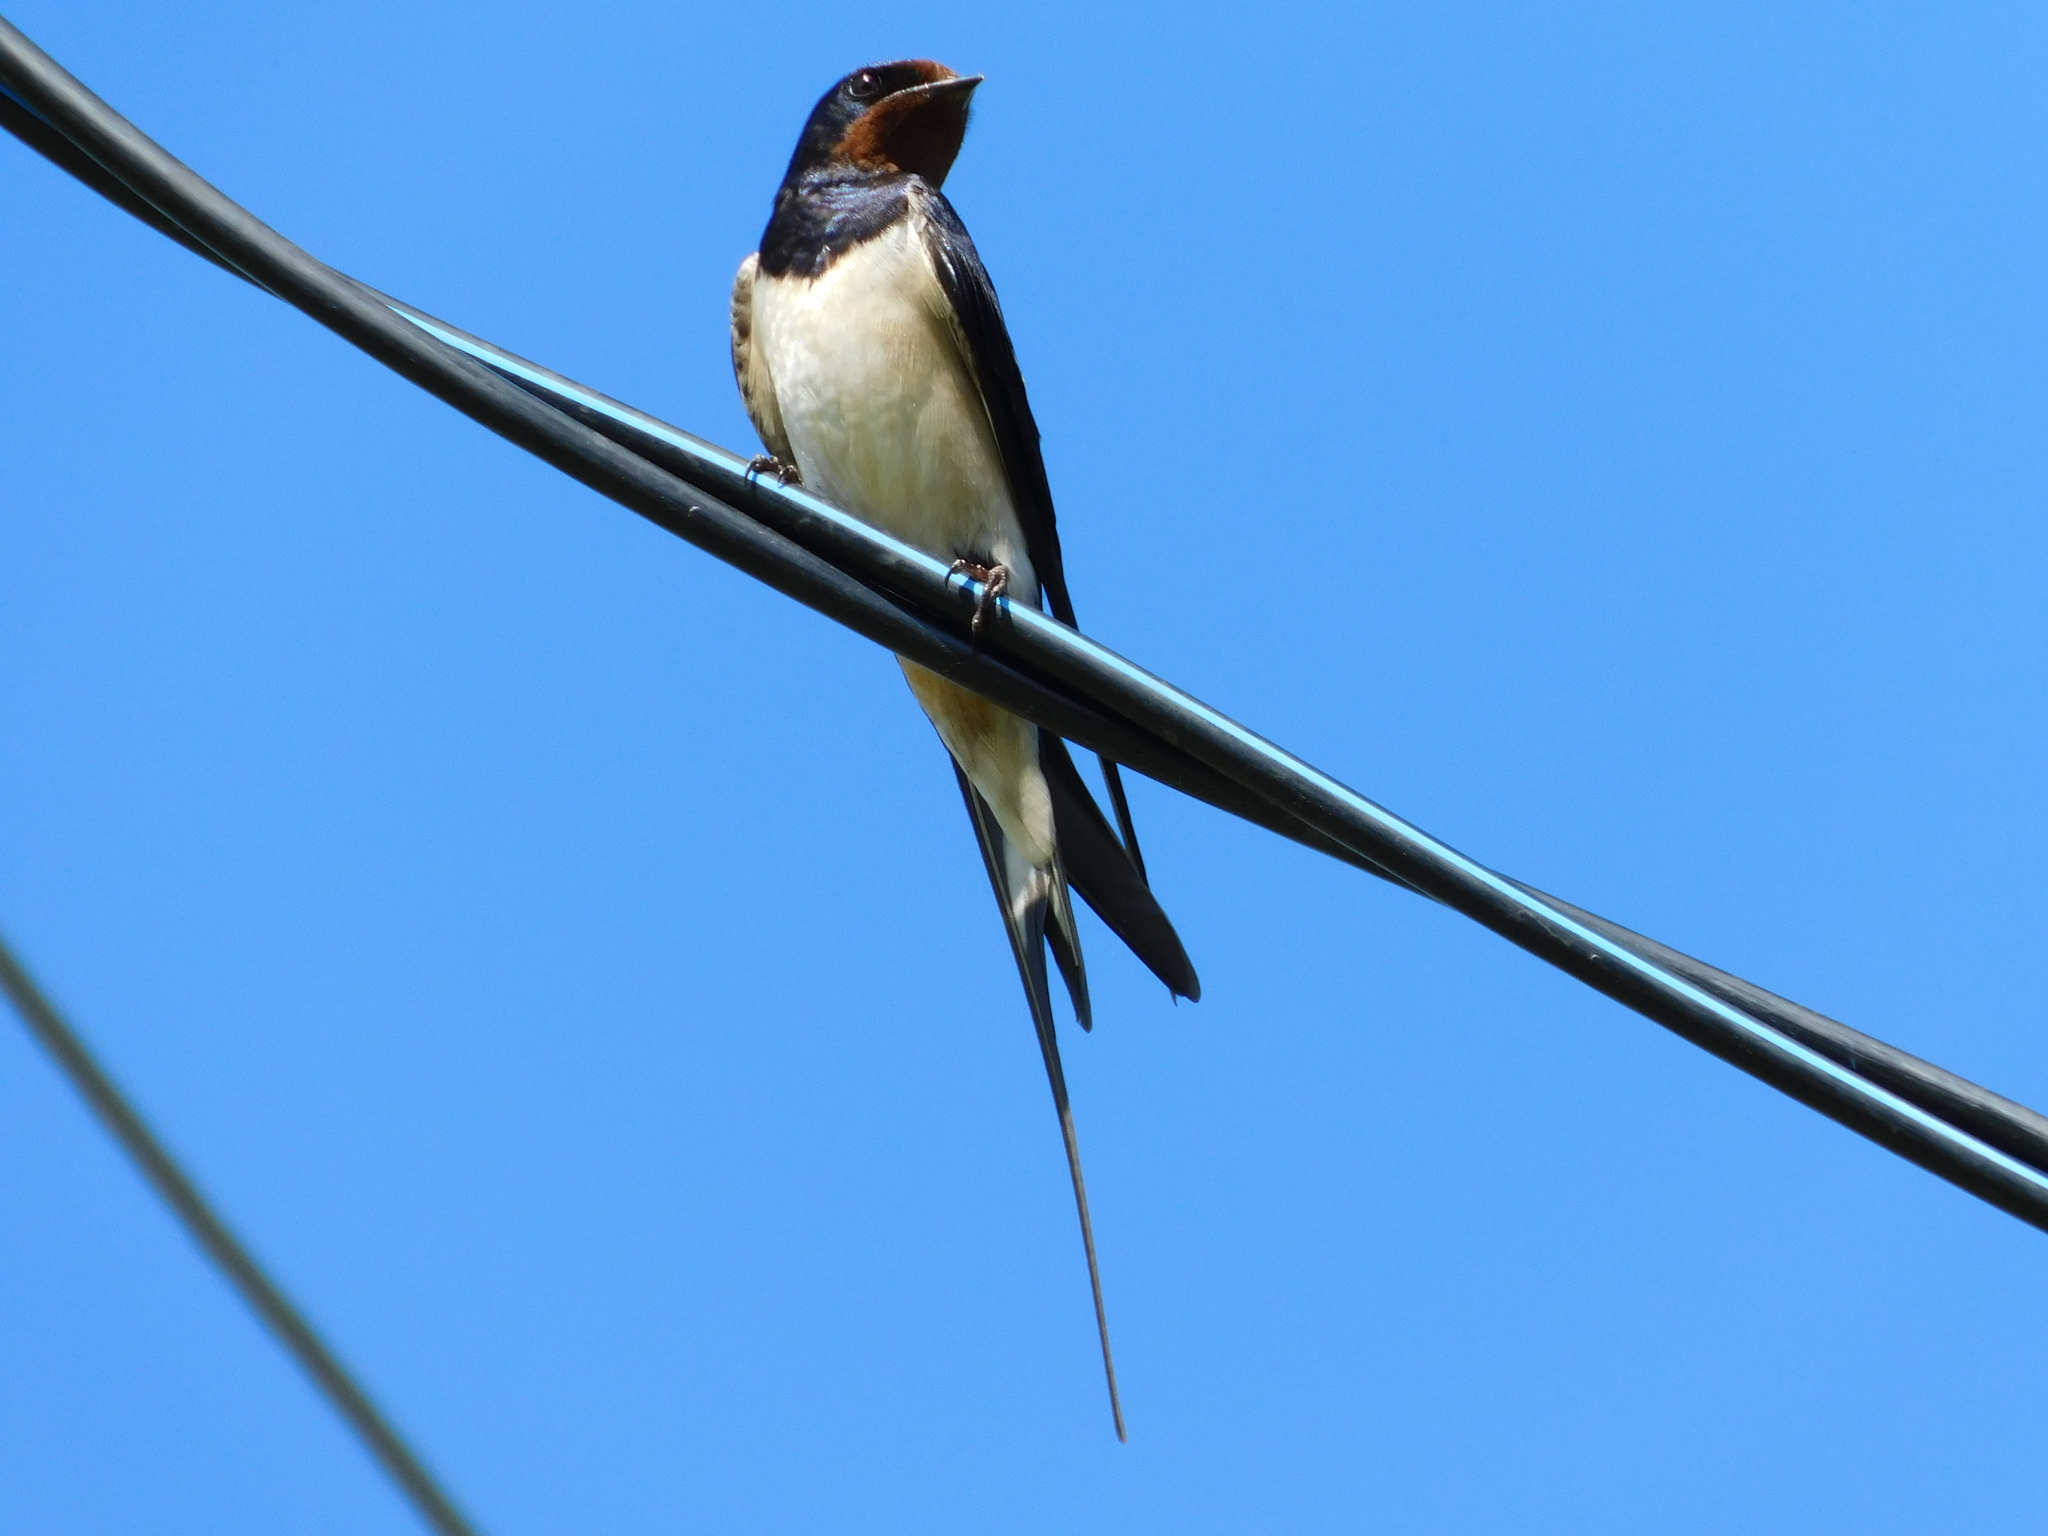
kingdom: Animalia
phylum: Chordata
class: Aves
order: Passeriformes
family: Hirundinidae
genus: Hirundo
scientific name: Hirundo rustica
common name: Barn swallow
